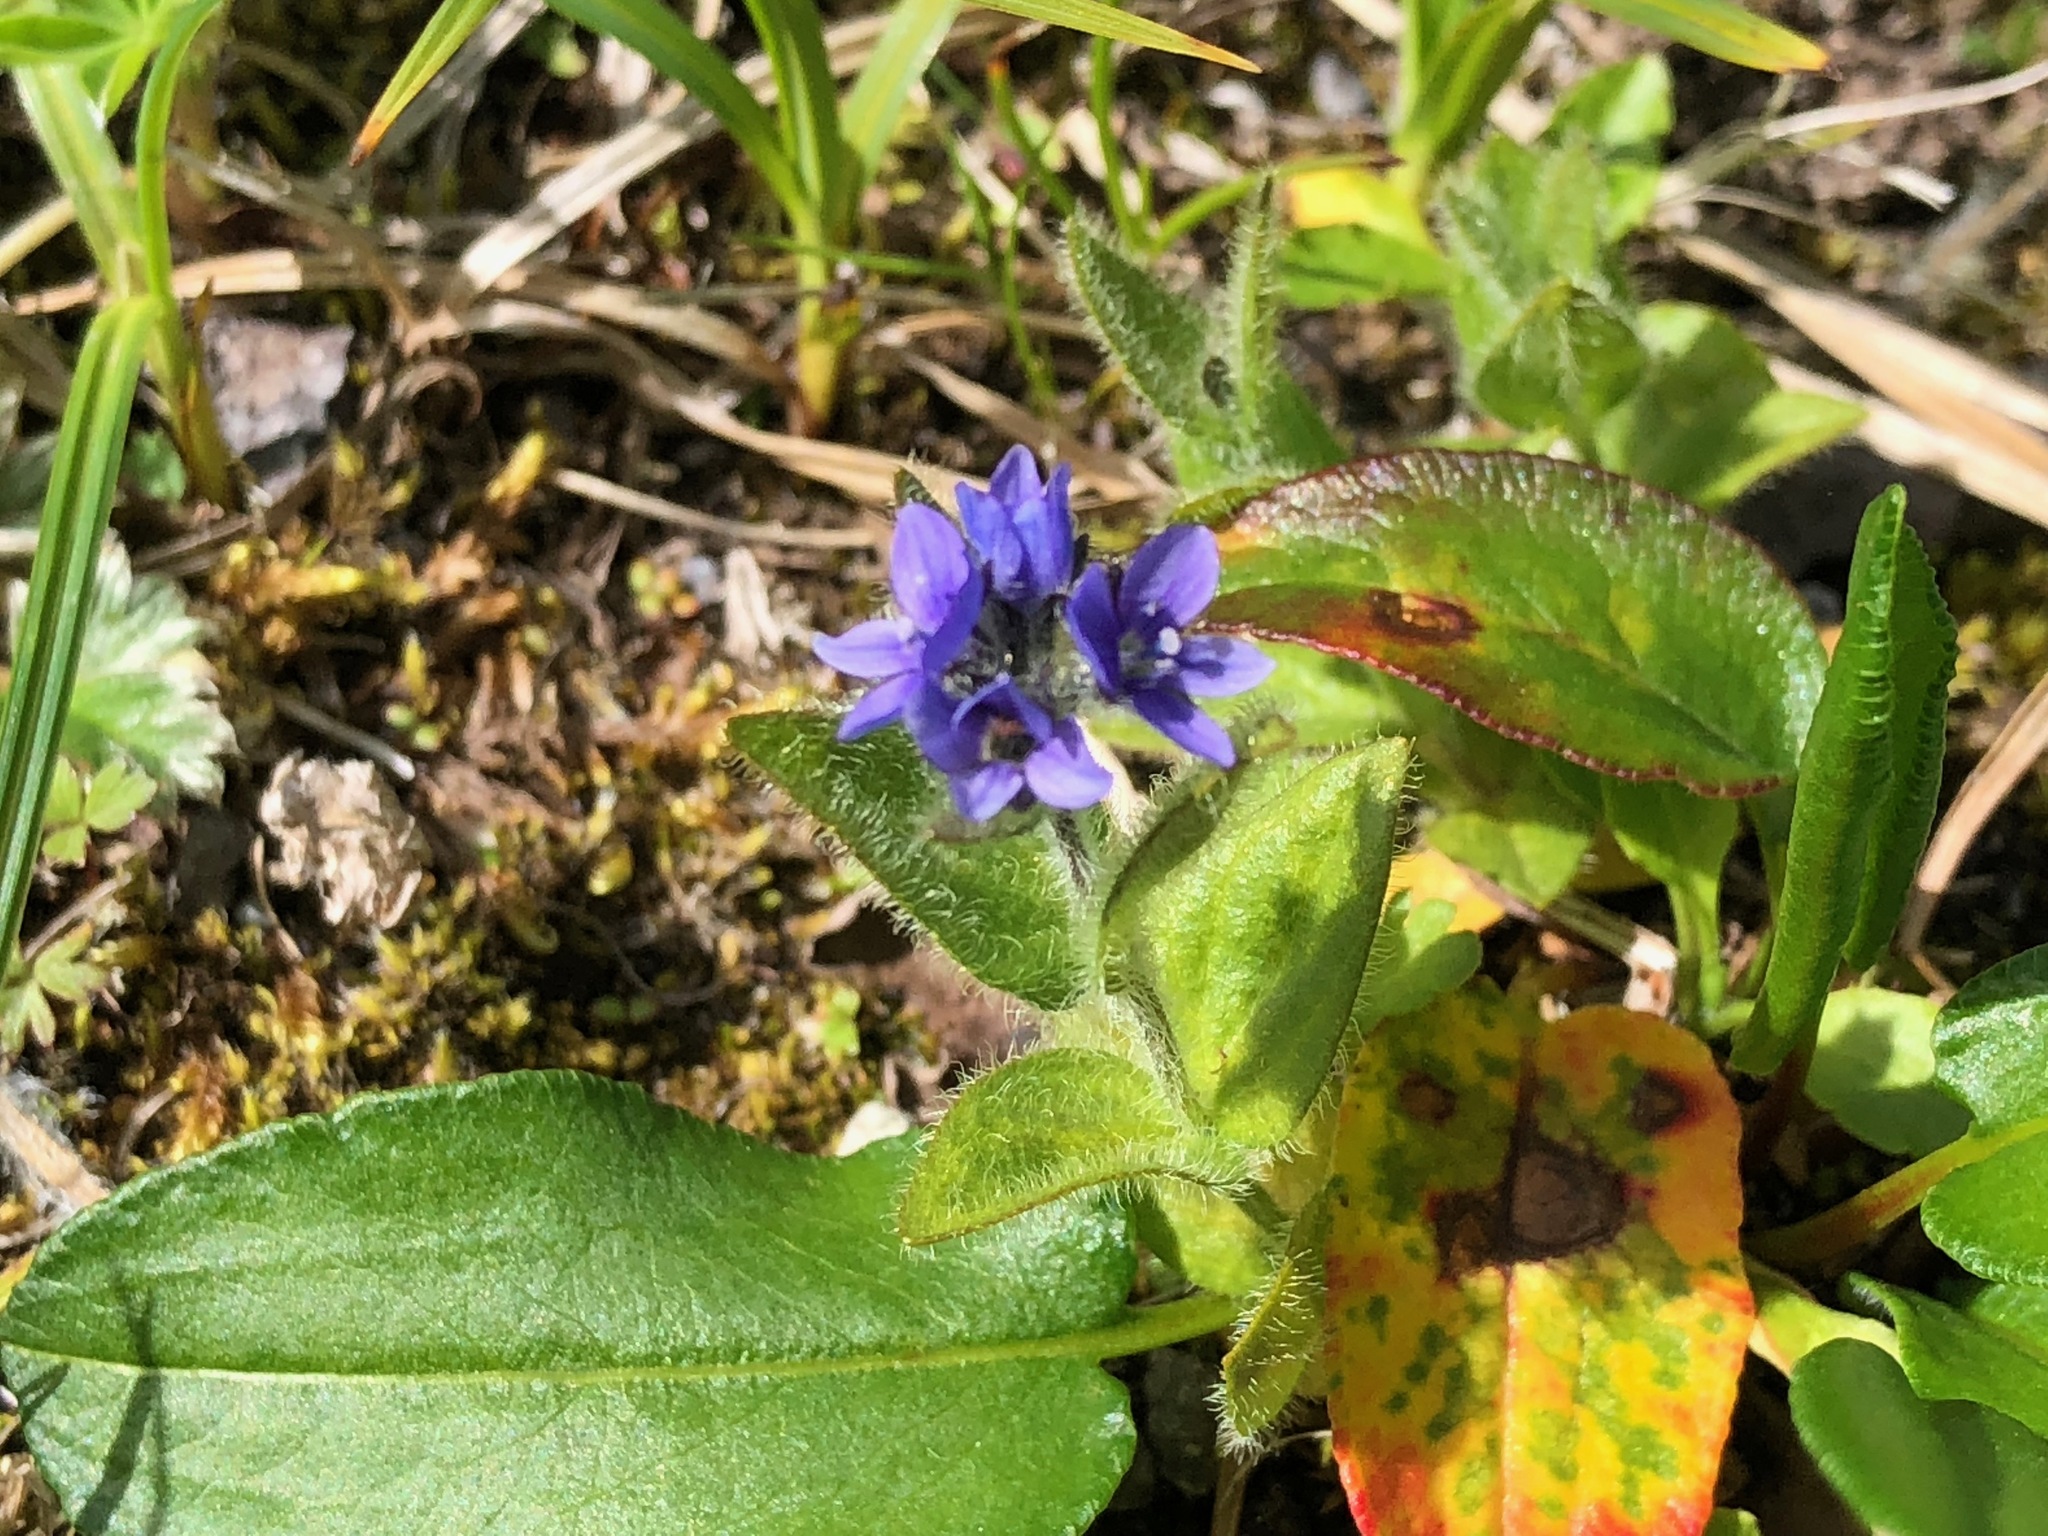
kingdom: Plantae
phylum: Tracheophyta
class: Magnoliopsida
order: Lamiales
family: Plantaginaceae
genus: Veronica
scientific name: Veronica wormskjoldii
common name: American alpine speedwell
